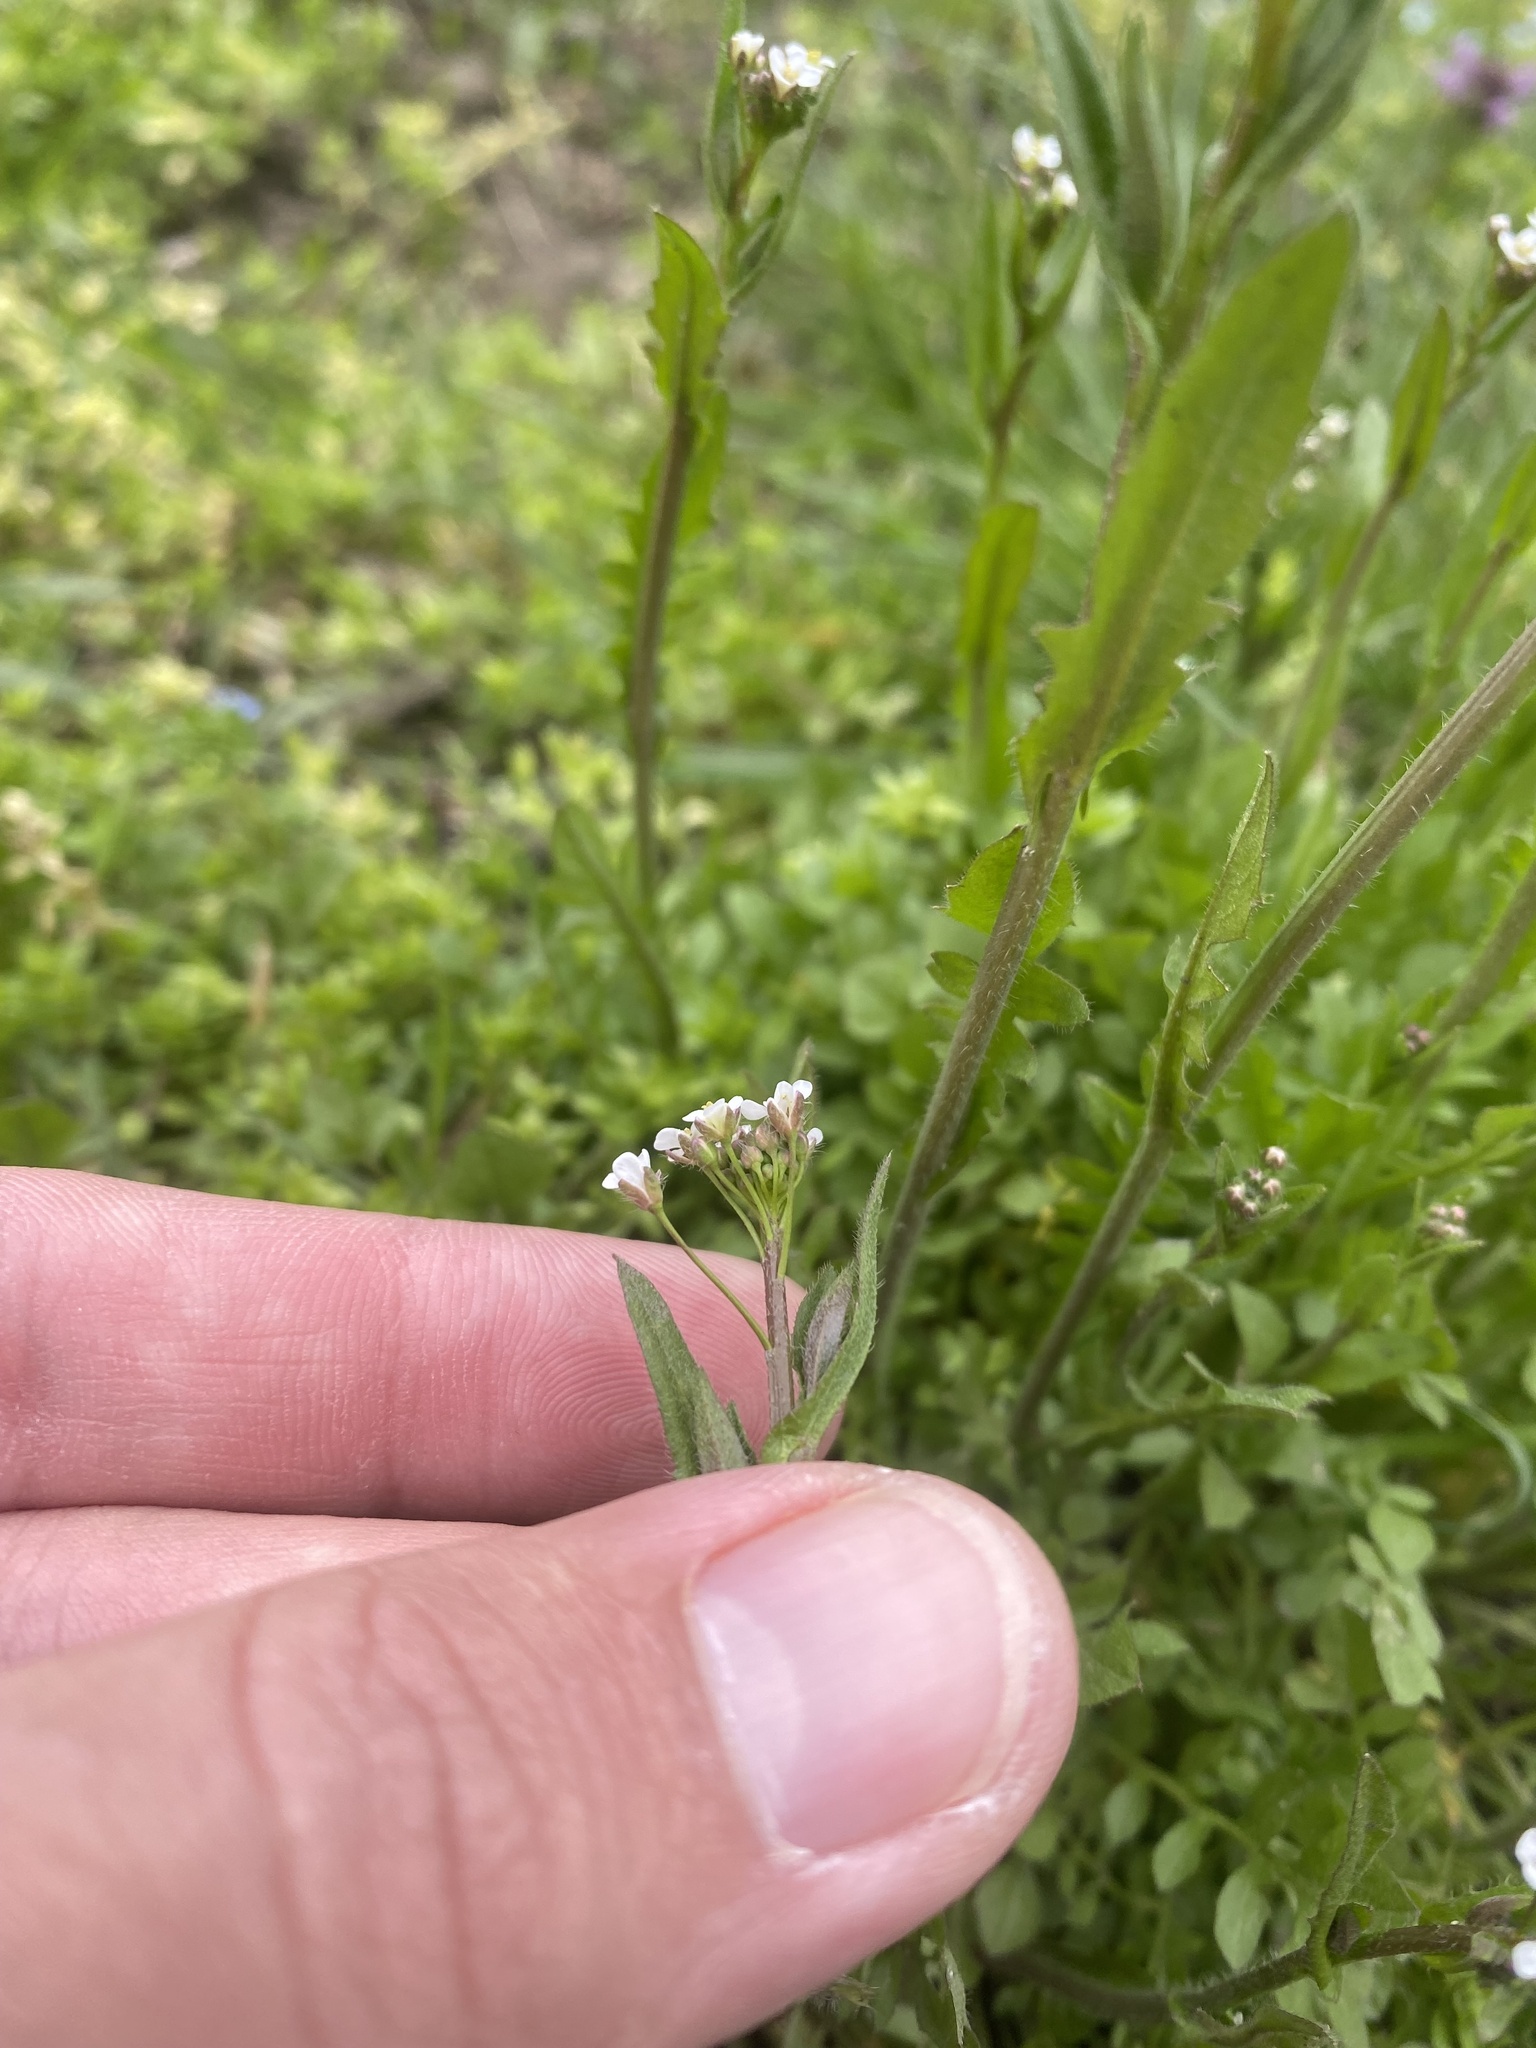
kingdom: Plantae
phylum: Tracheophyta
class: Magnoliopsida
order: Brassicales
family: Brassicaceae
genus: Capsella
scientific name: Capsella bursa-pastoris
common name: Shepherd's purse
